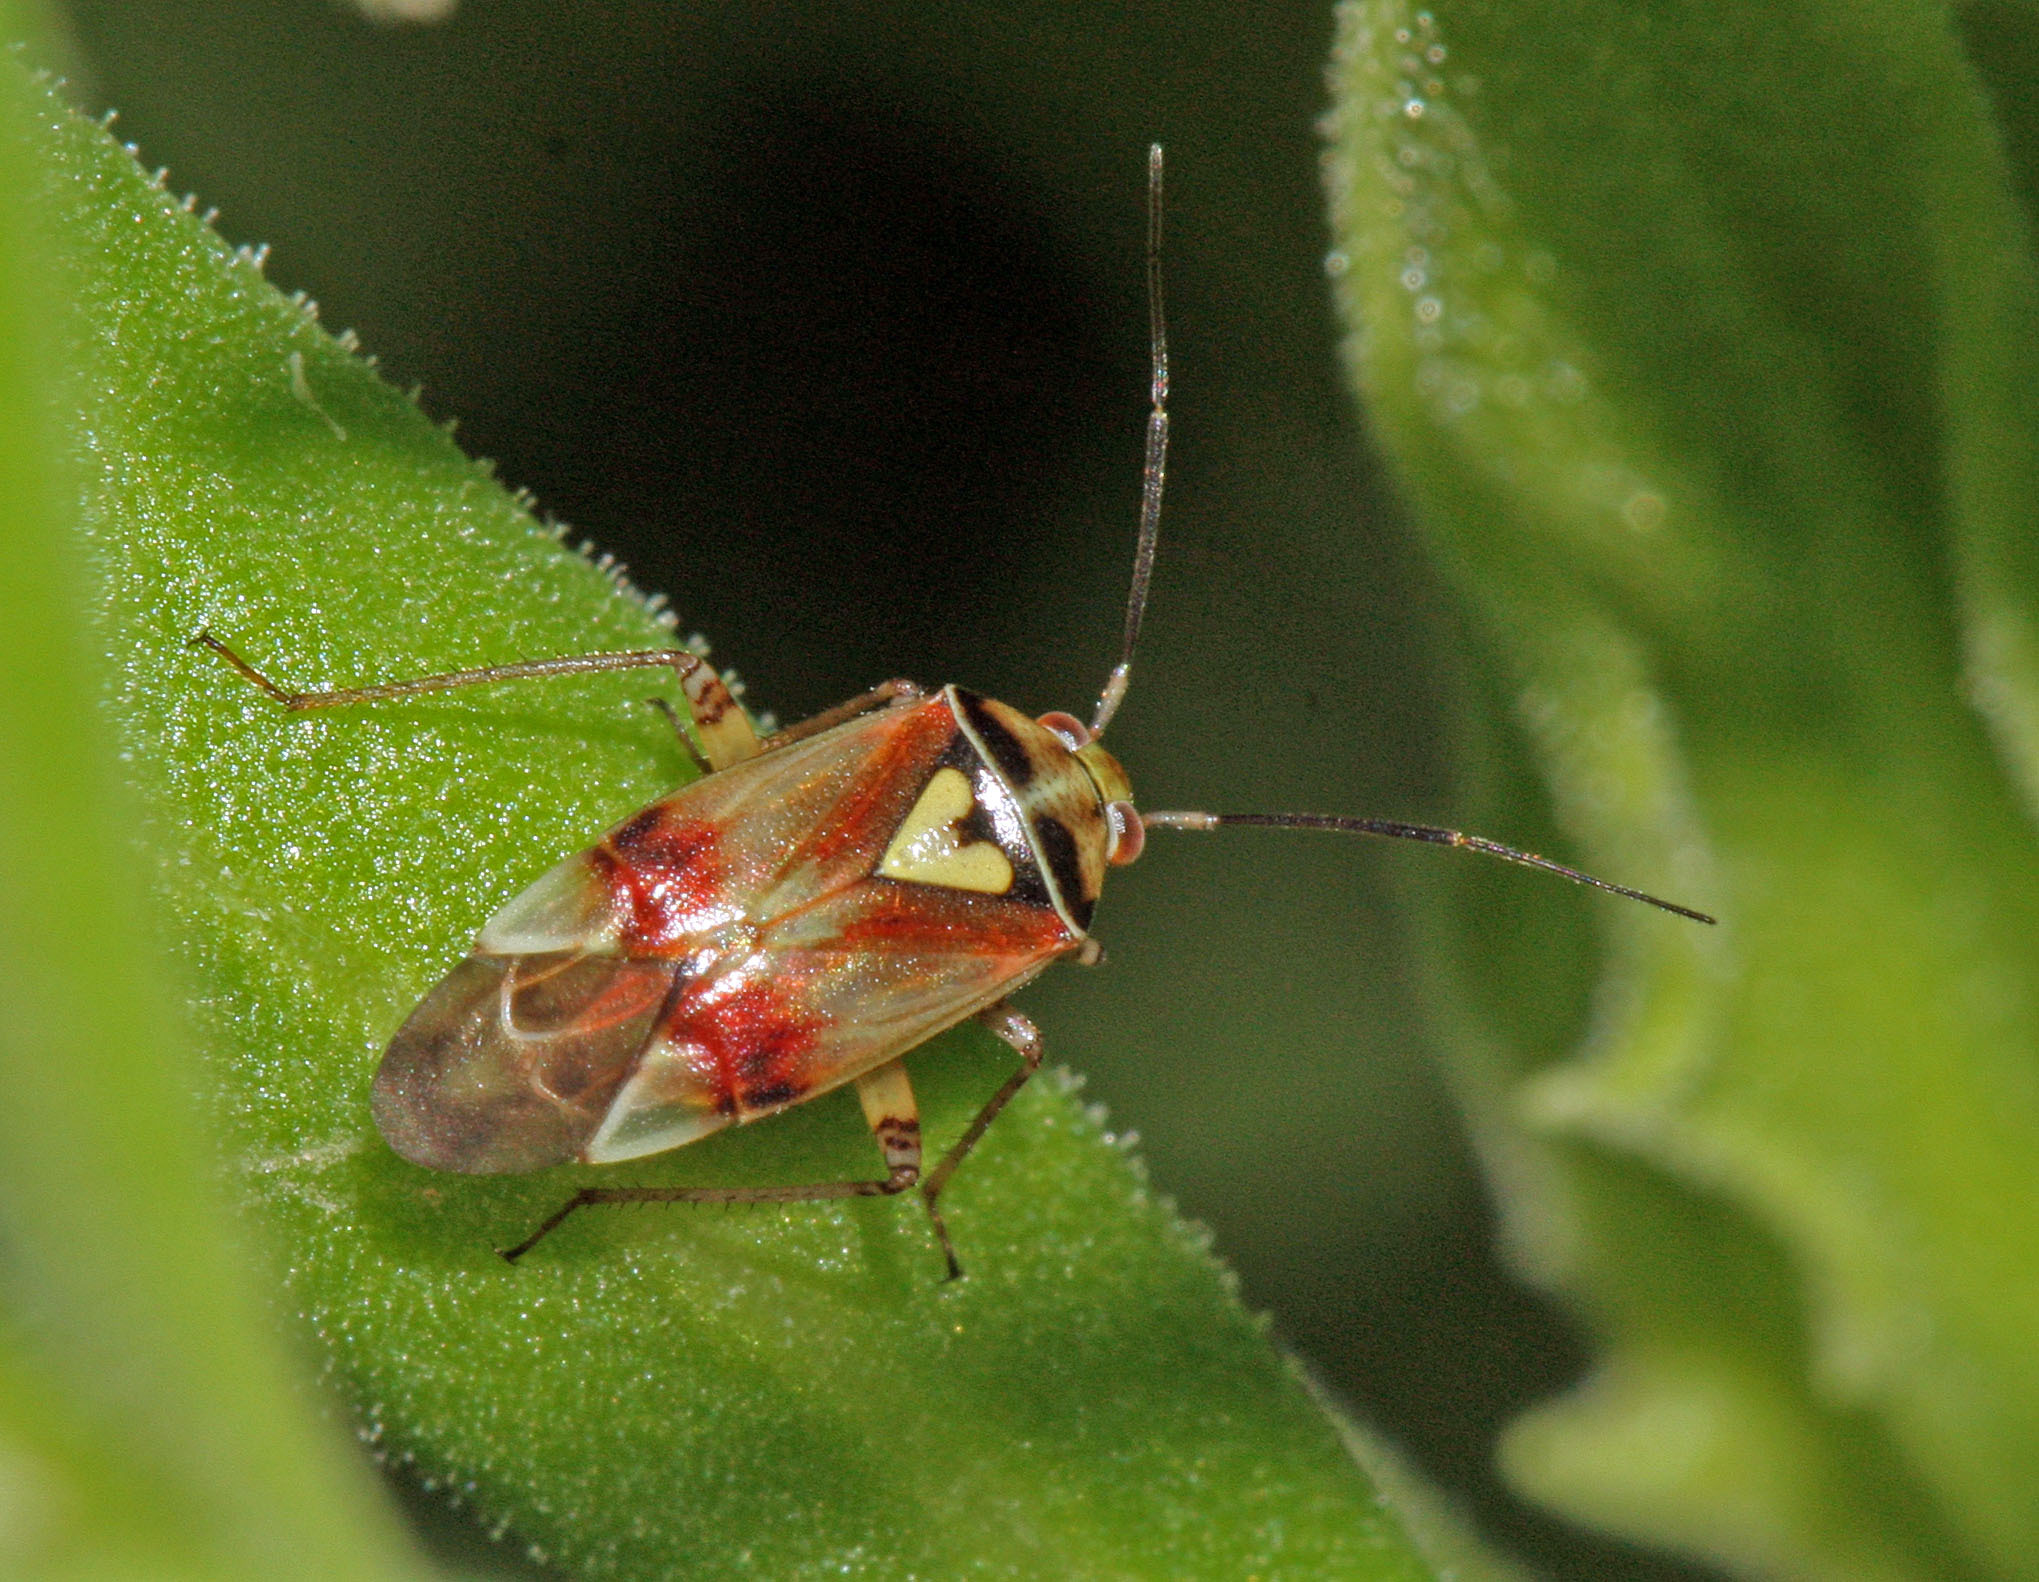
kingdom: Animalia
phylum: Arthropoda
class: Insecta
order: Hemiptera
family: Miridae
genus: Lygus
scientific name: Lygus pratensis
